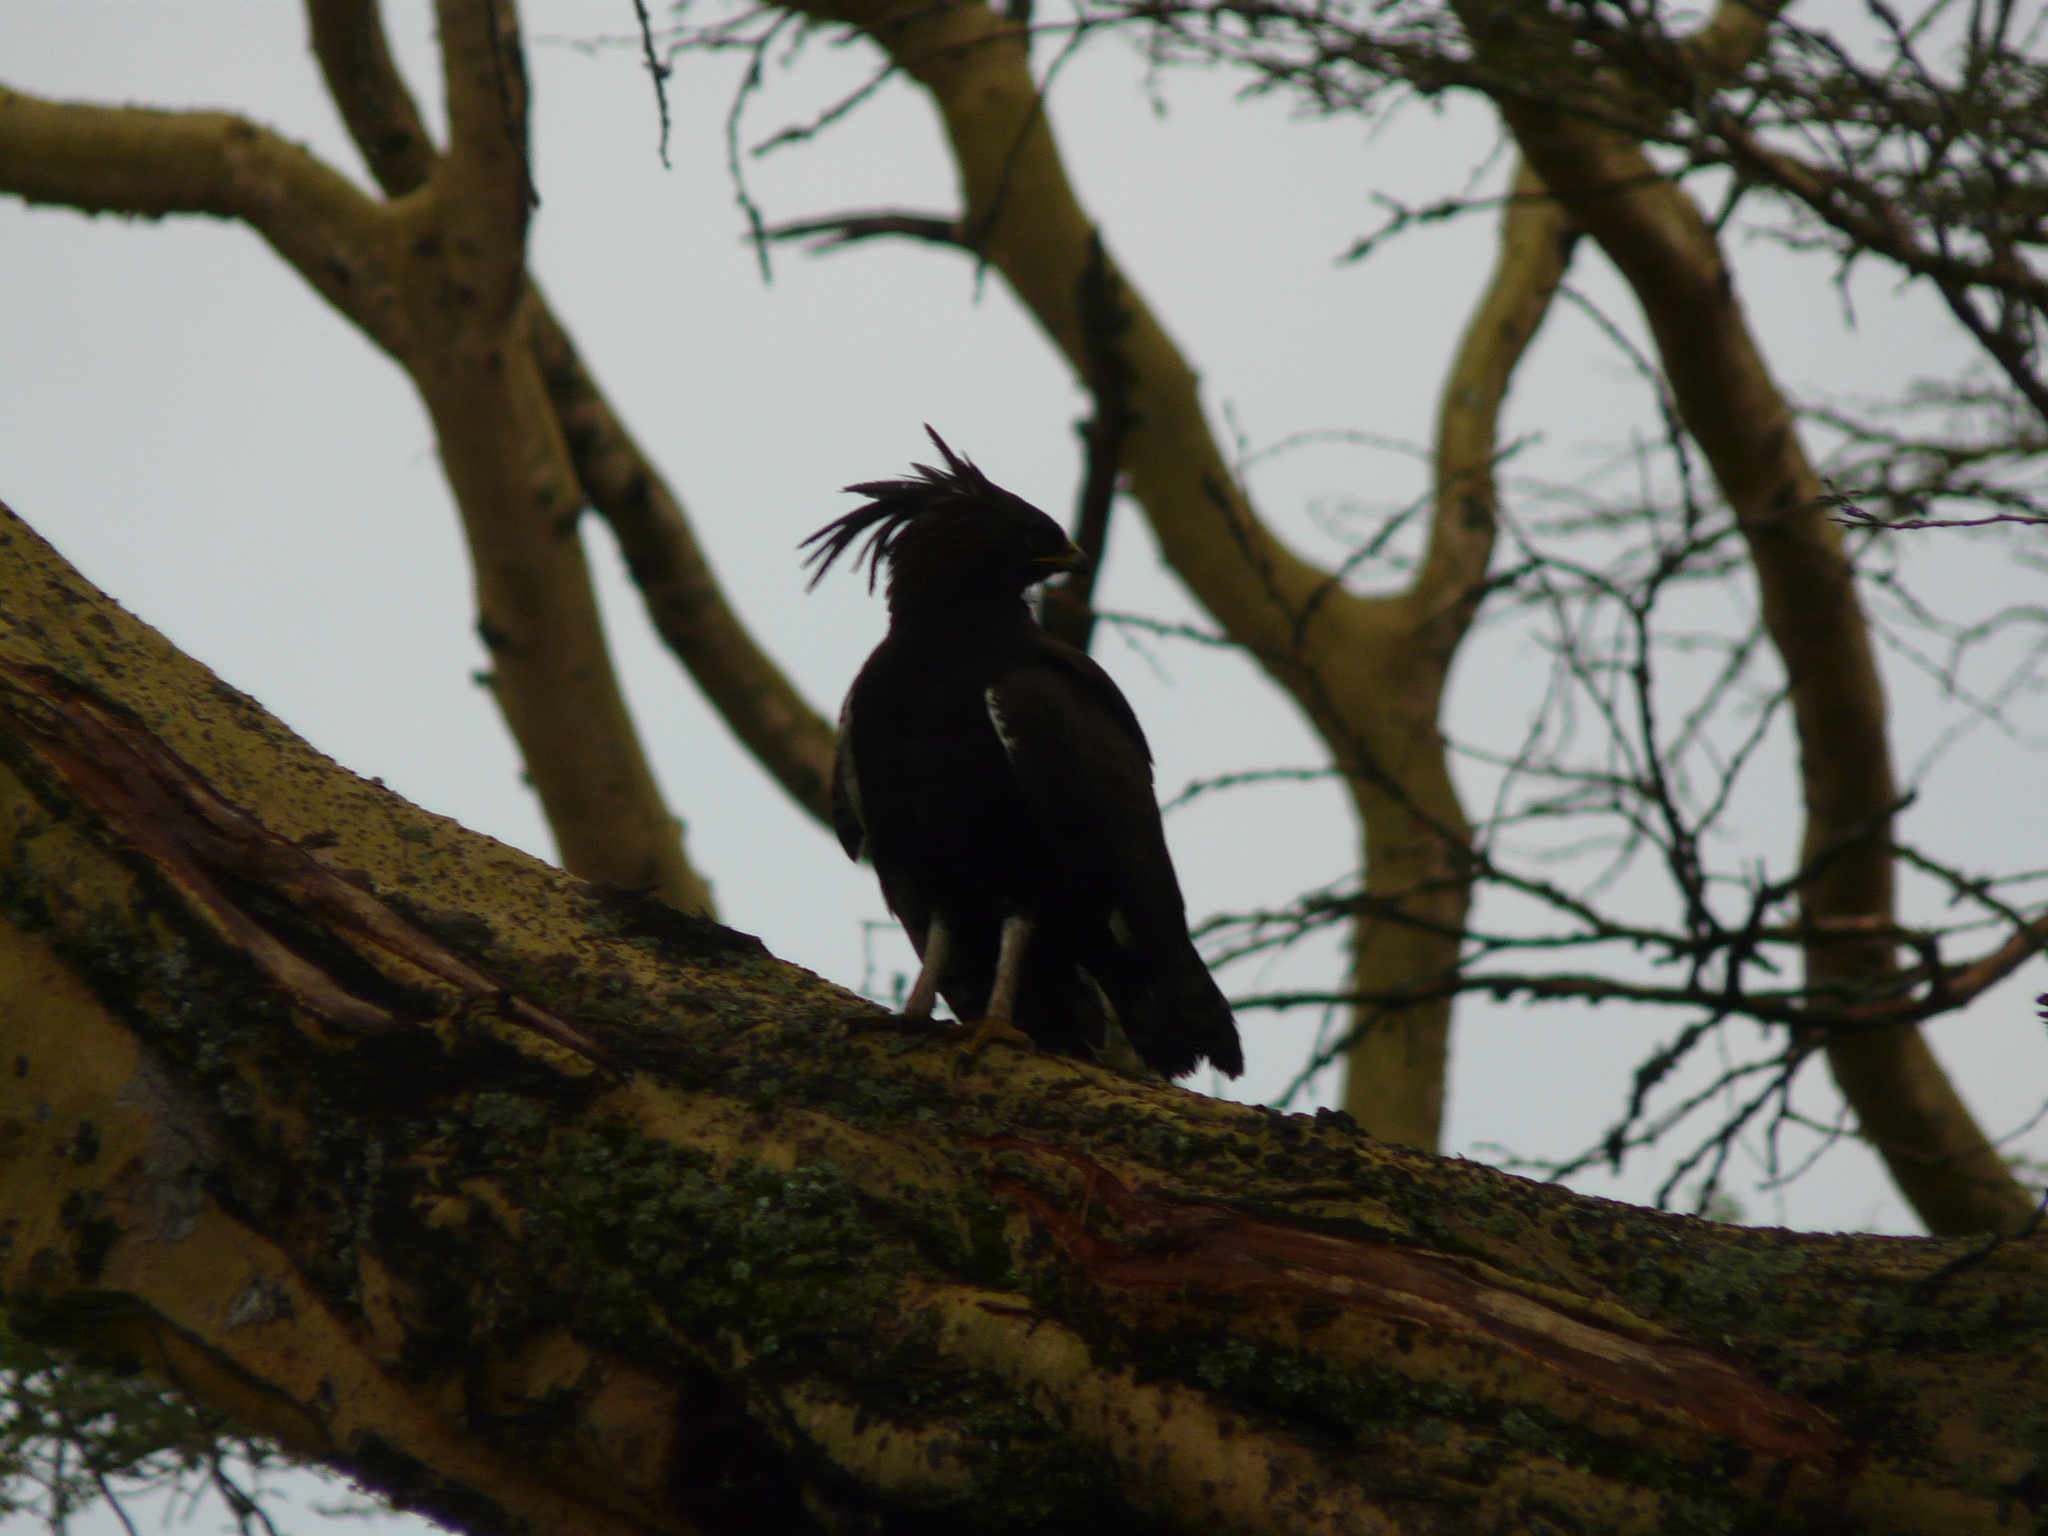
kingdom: Animalia
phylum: Chordata
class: Aves
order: Accipitriformes
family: Accipitridae
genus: Lophaetus
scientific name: Lophaetus occipitalis
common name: Long-crested eagle
